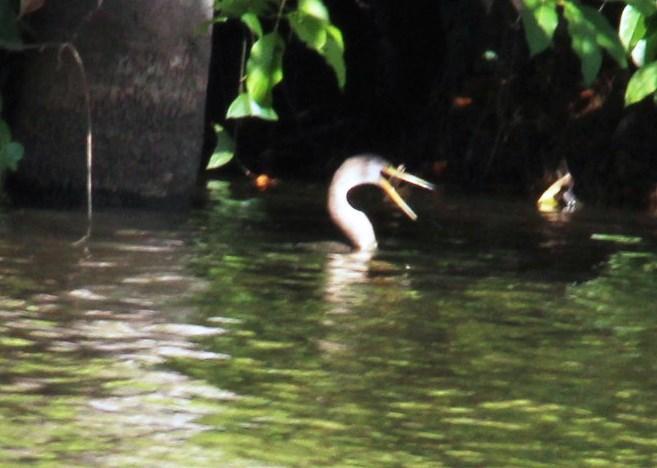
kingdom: Animalia
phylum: Chordata
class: Aves
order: Suliformes
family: Anhingidae
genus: Anhinga
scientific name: Anhinga anhinga
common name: Anhinga
